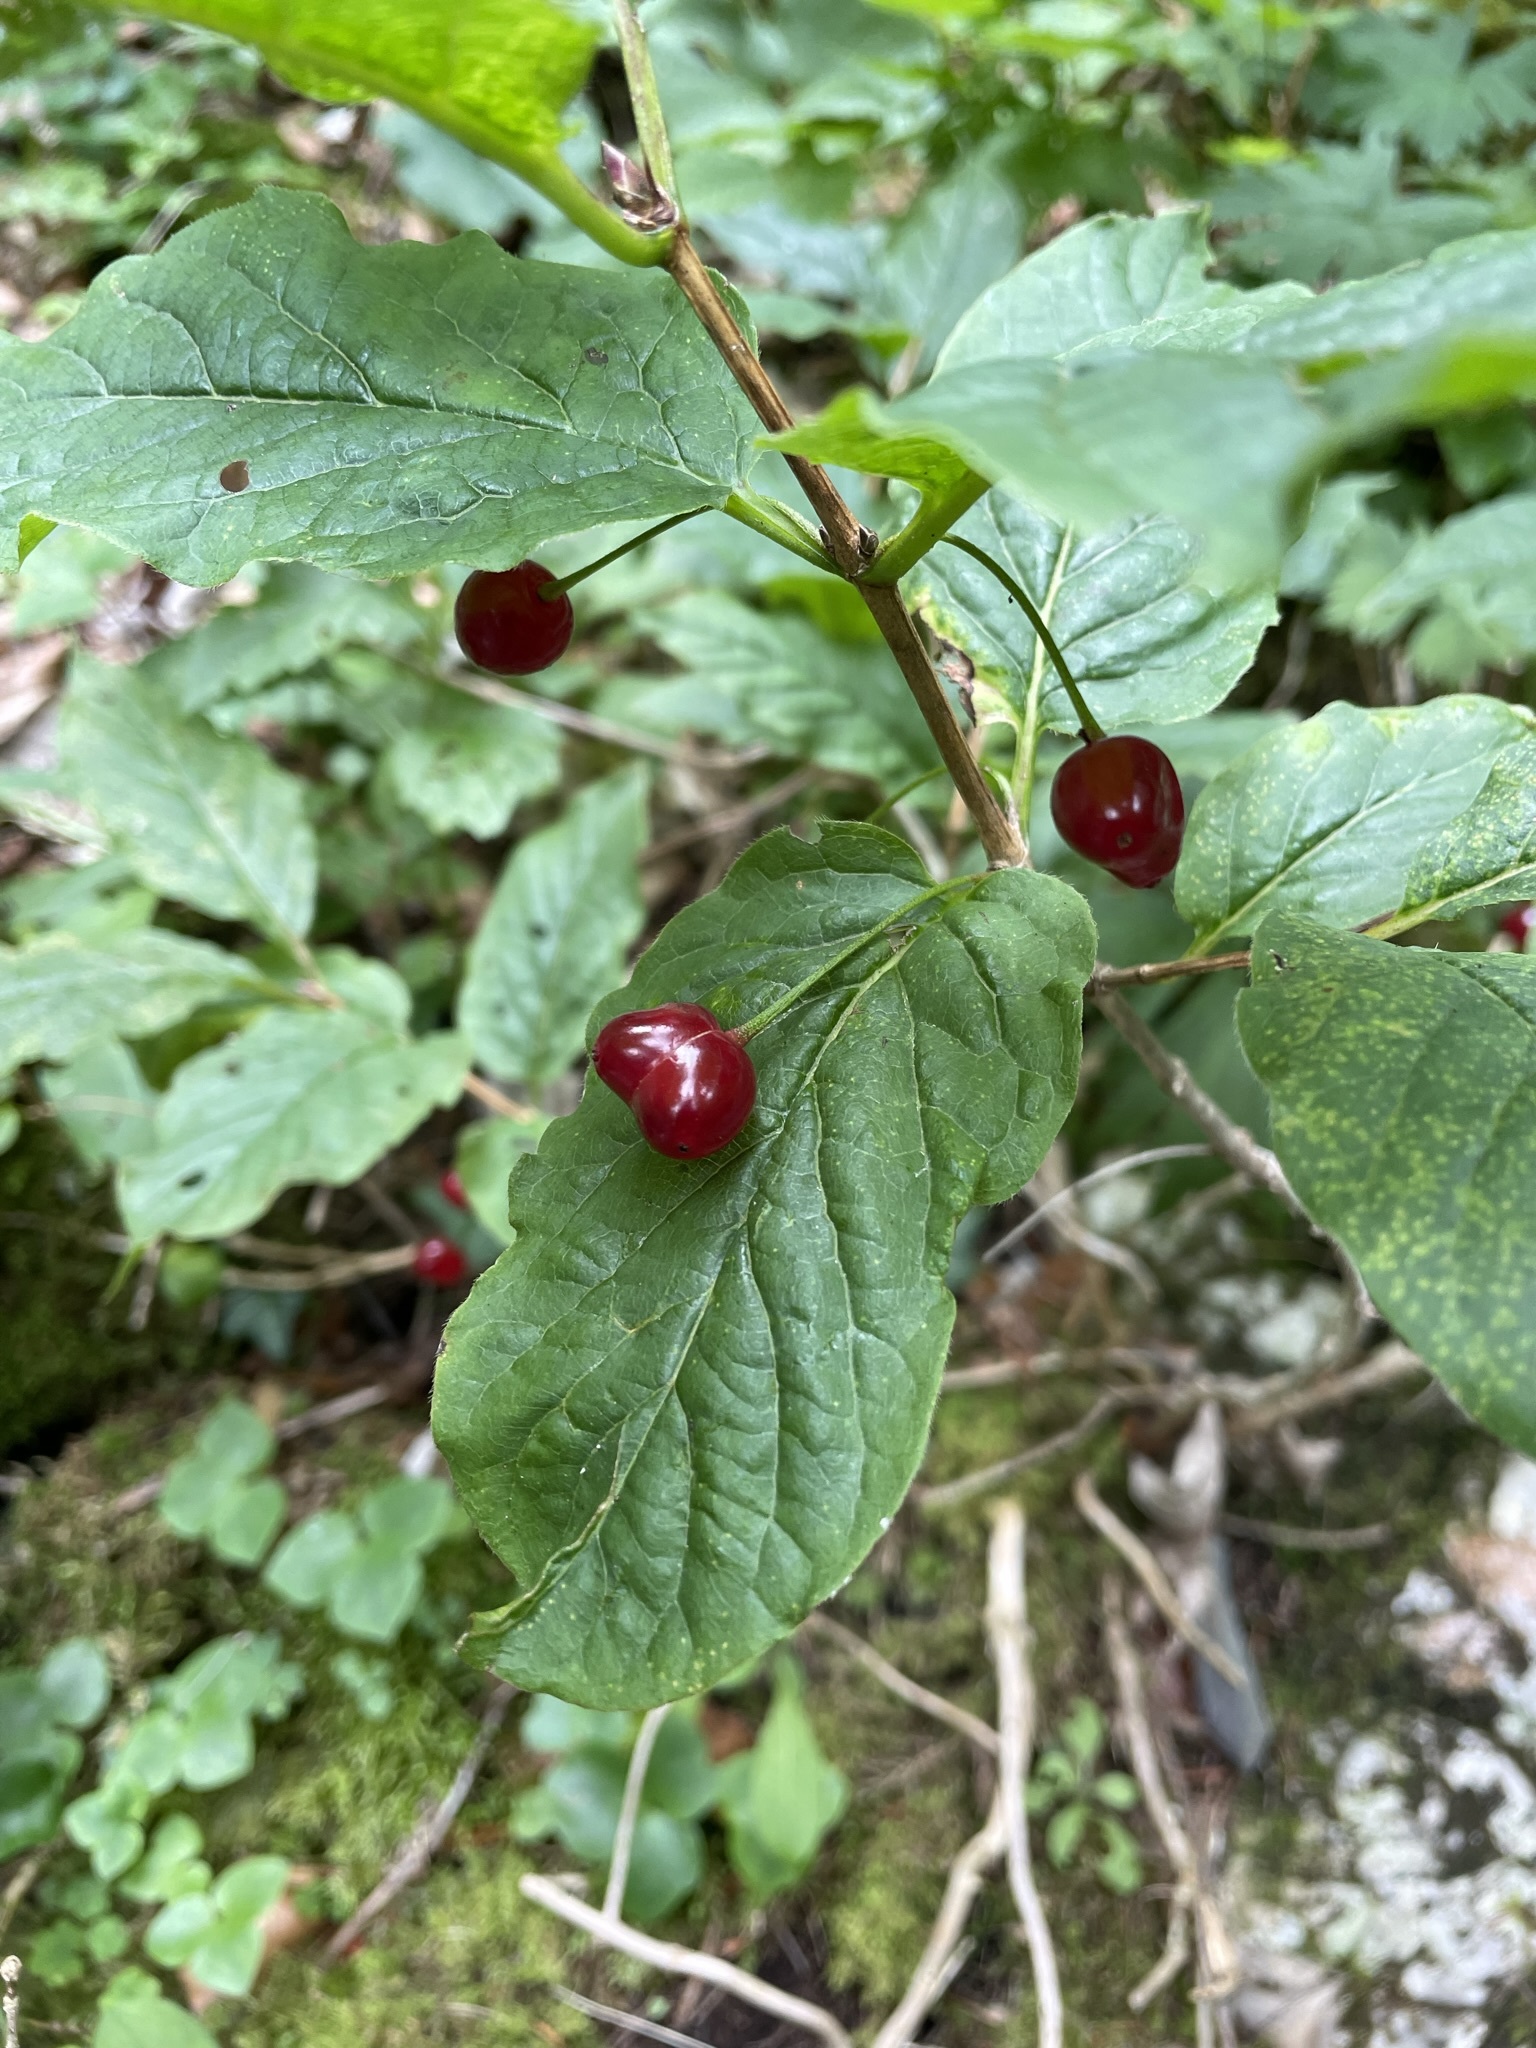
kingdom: Plantae
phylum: Tracheophyta
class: Magnoliopsida
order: Dipsacales
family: Caprifoliaceae
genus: Lonicera
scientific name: Lonicera alpigena
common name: Alpine honeysuckle
